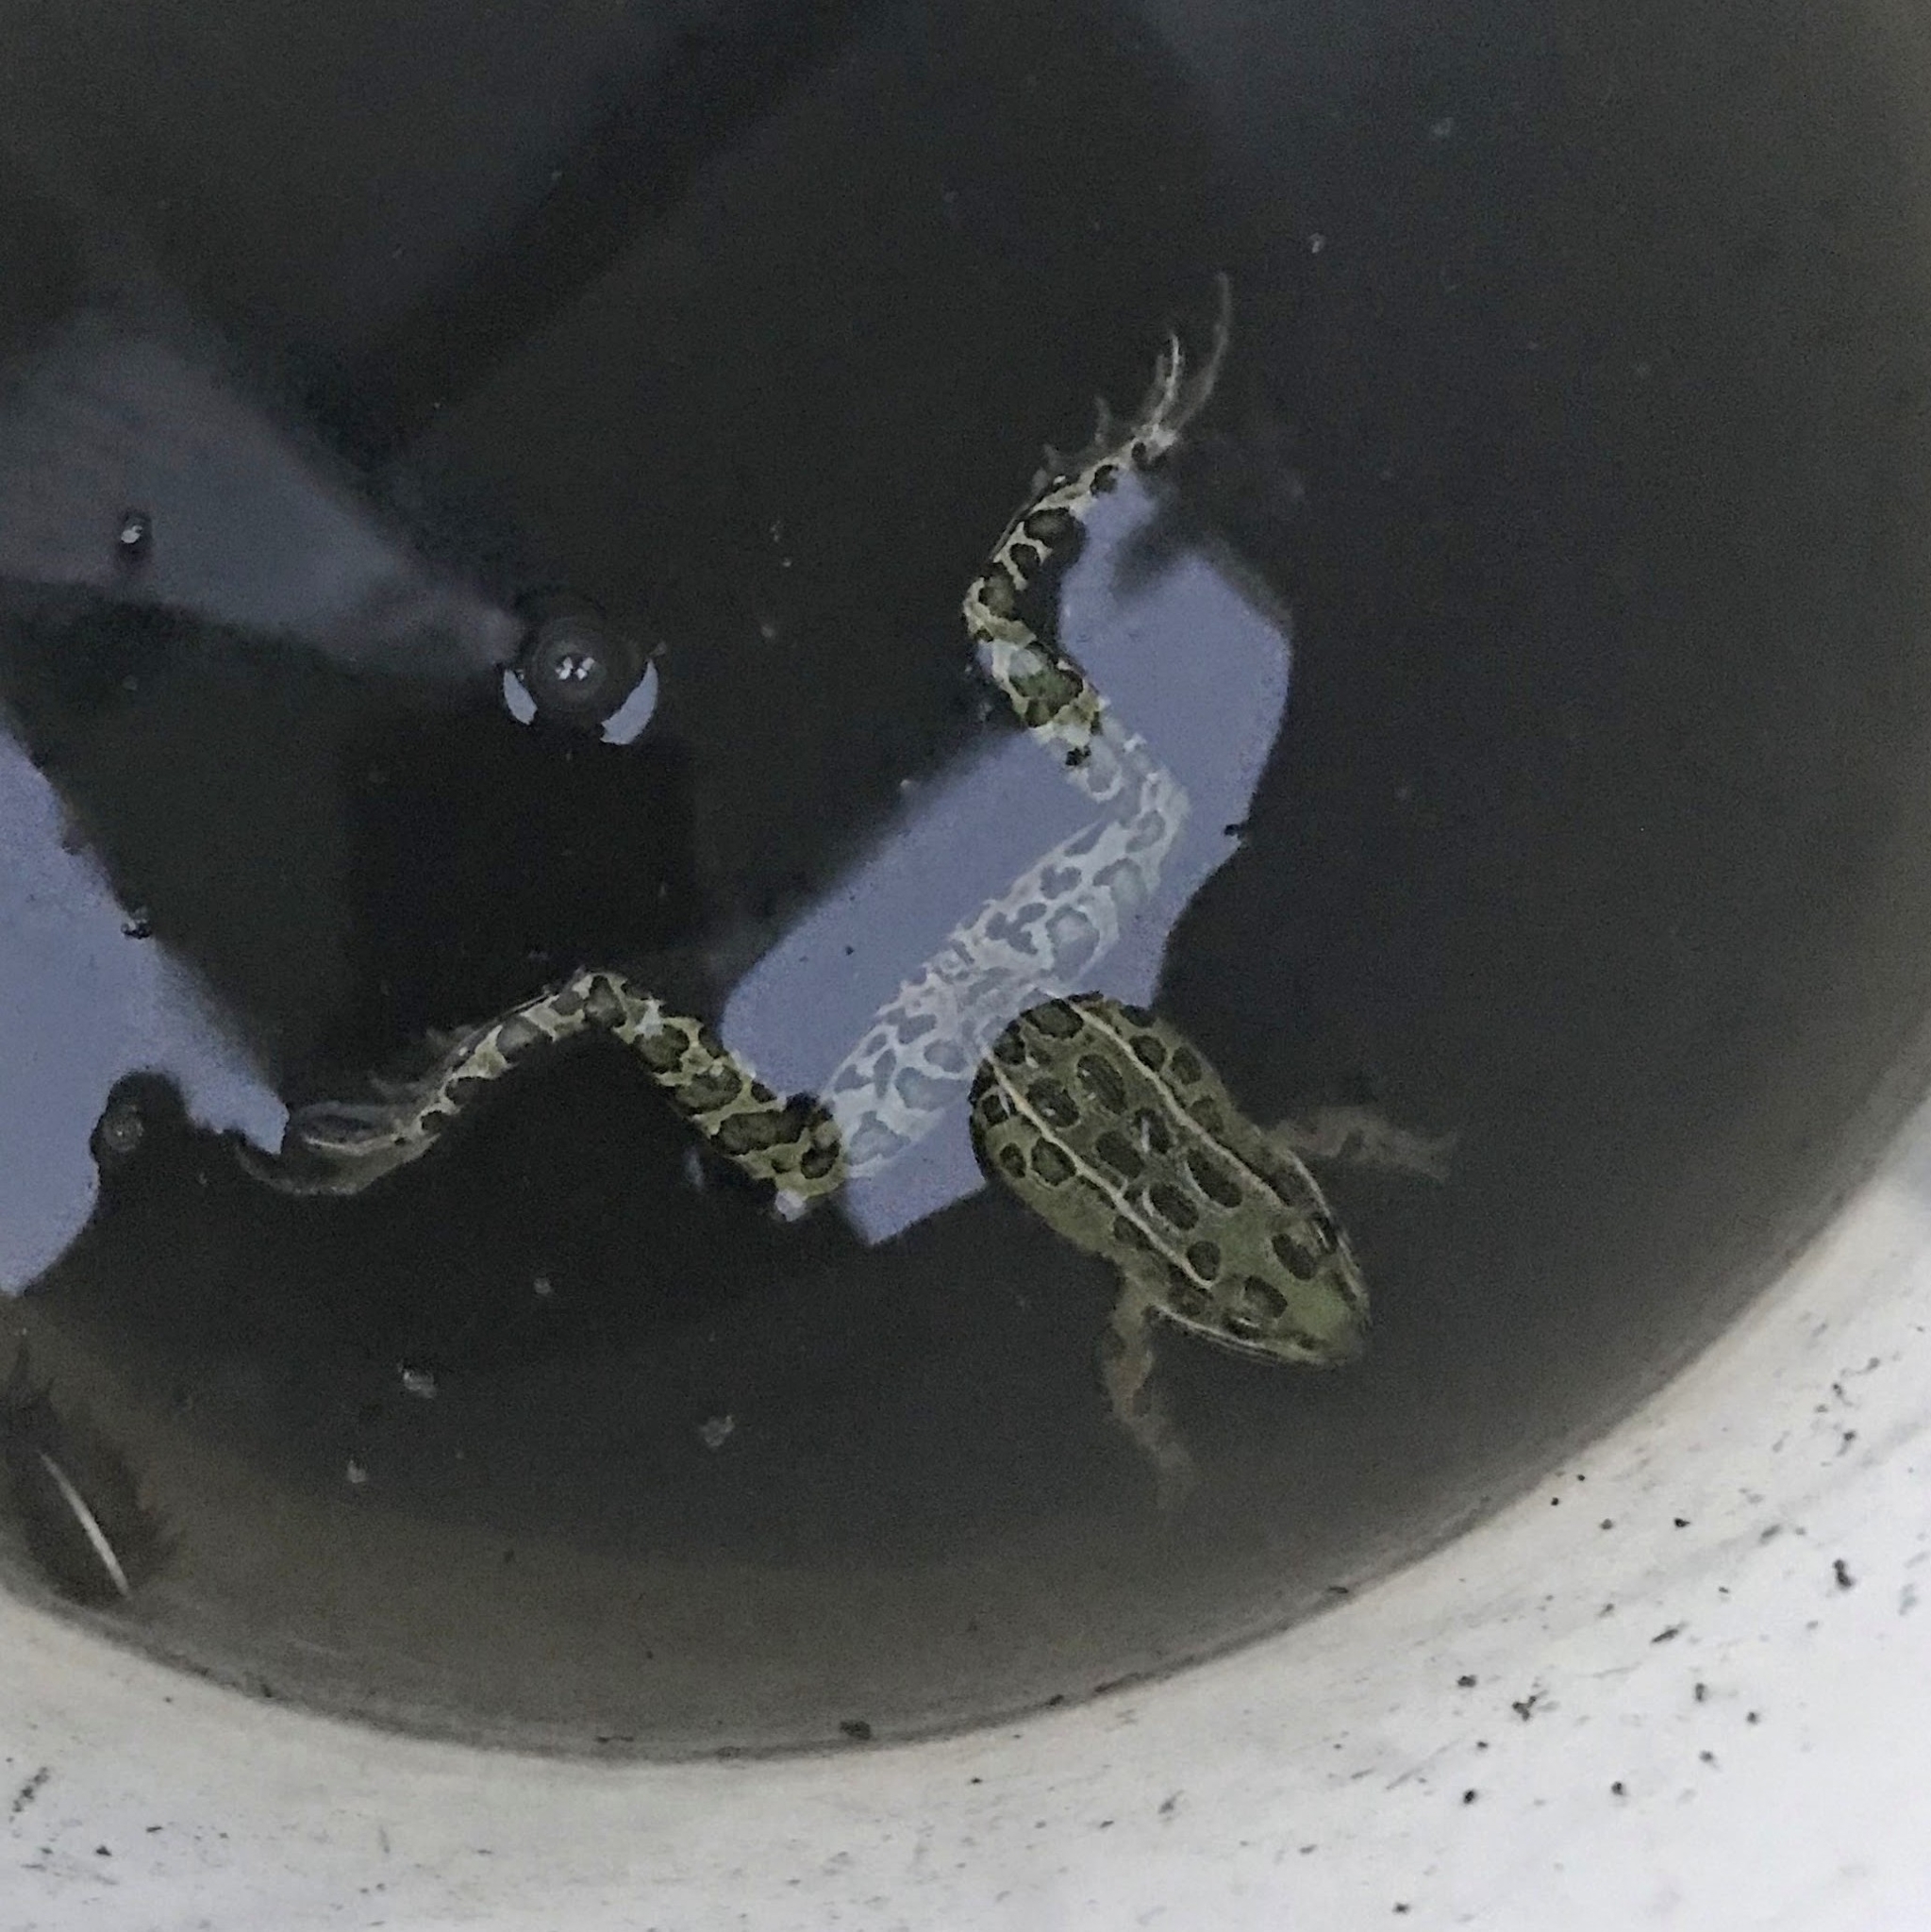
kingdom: Animalia
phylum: Chordata
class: Amphibia
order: Anura
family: Ranidae
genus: Lithobates
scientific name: Lithobates pipiens
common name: Northern leopard frog
